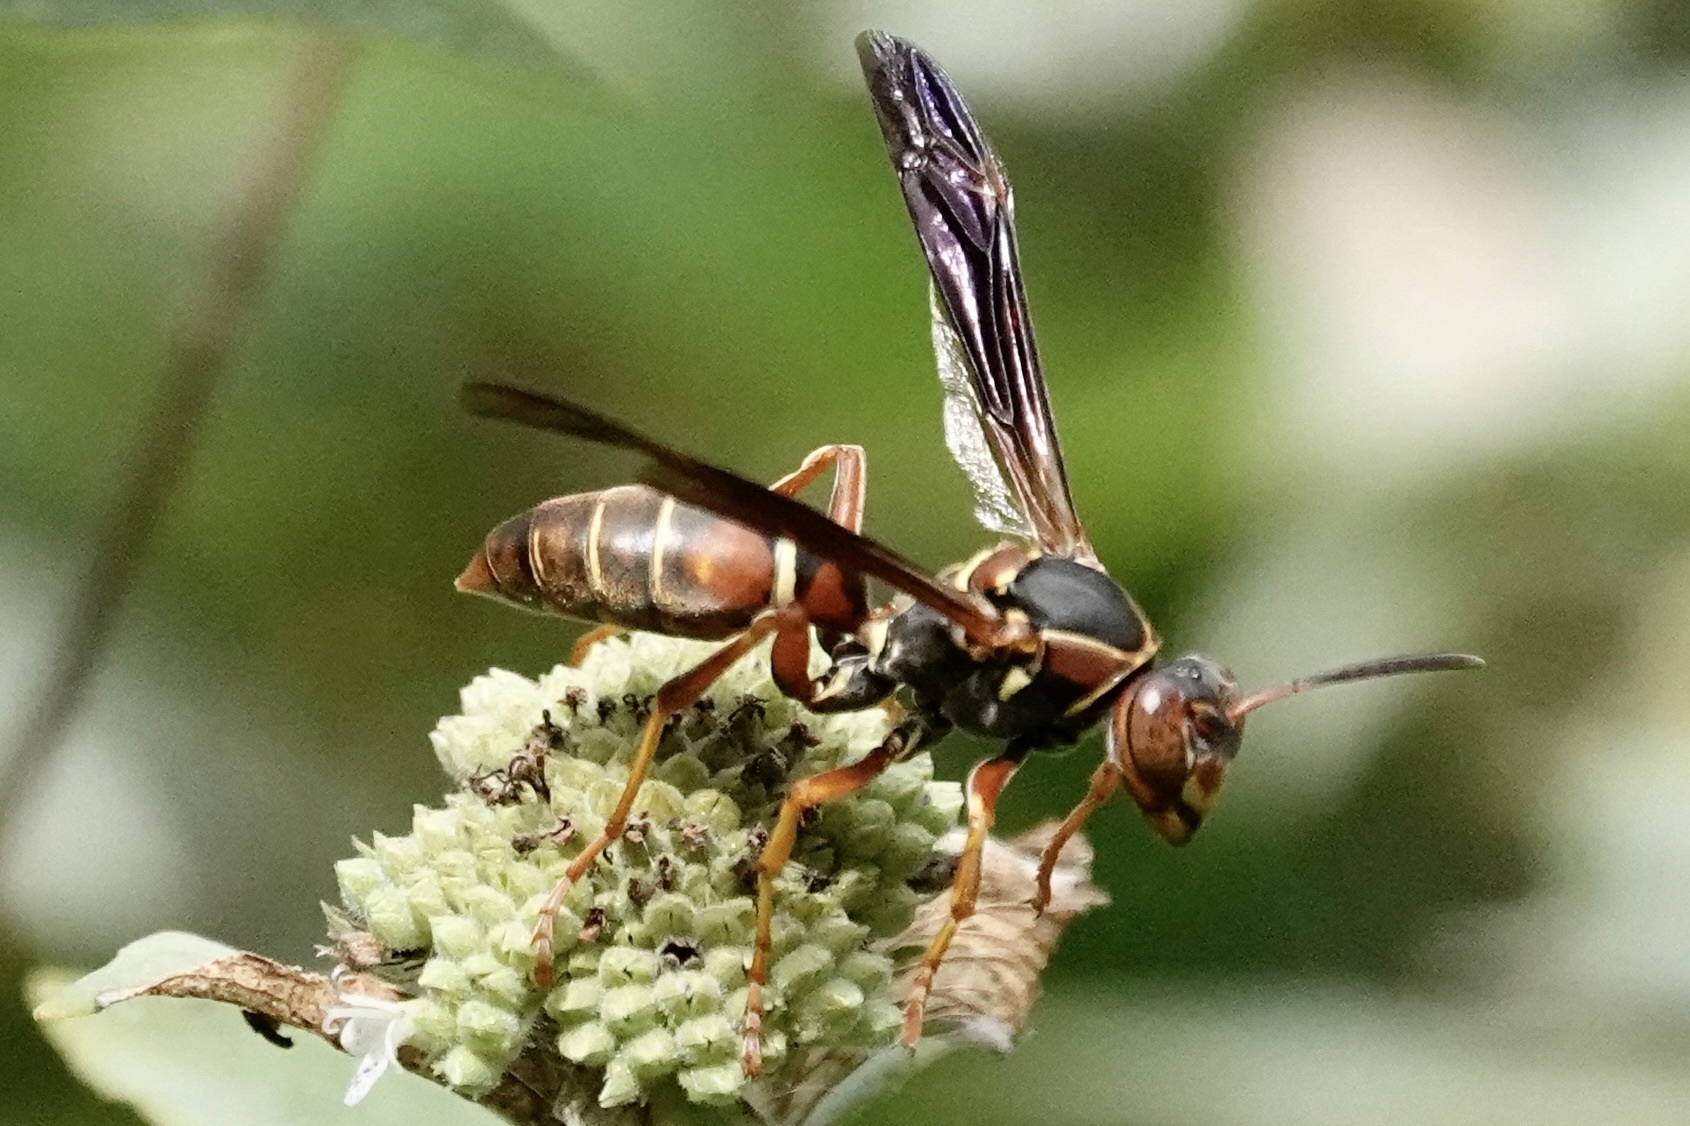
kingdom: Animalia
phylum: Arthropoda
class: Insecta
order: Hymenoptera
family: Eumenidae
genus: Polistes
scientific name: Polistes fuscatus
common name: Dark paper wasp
